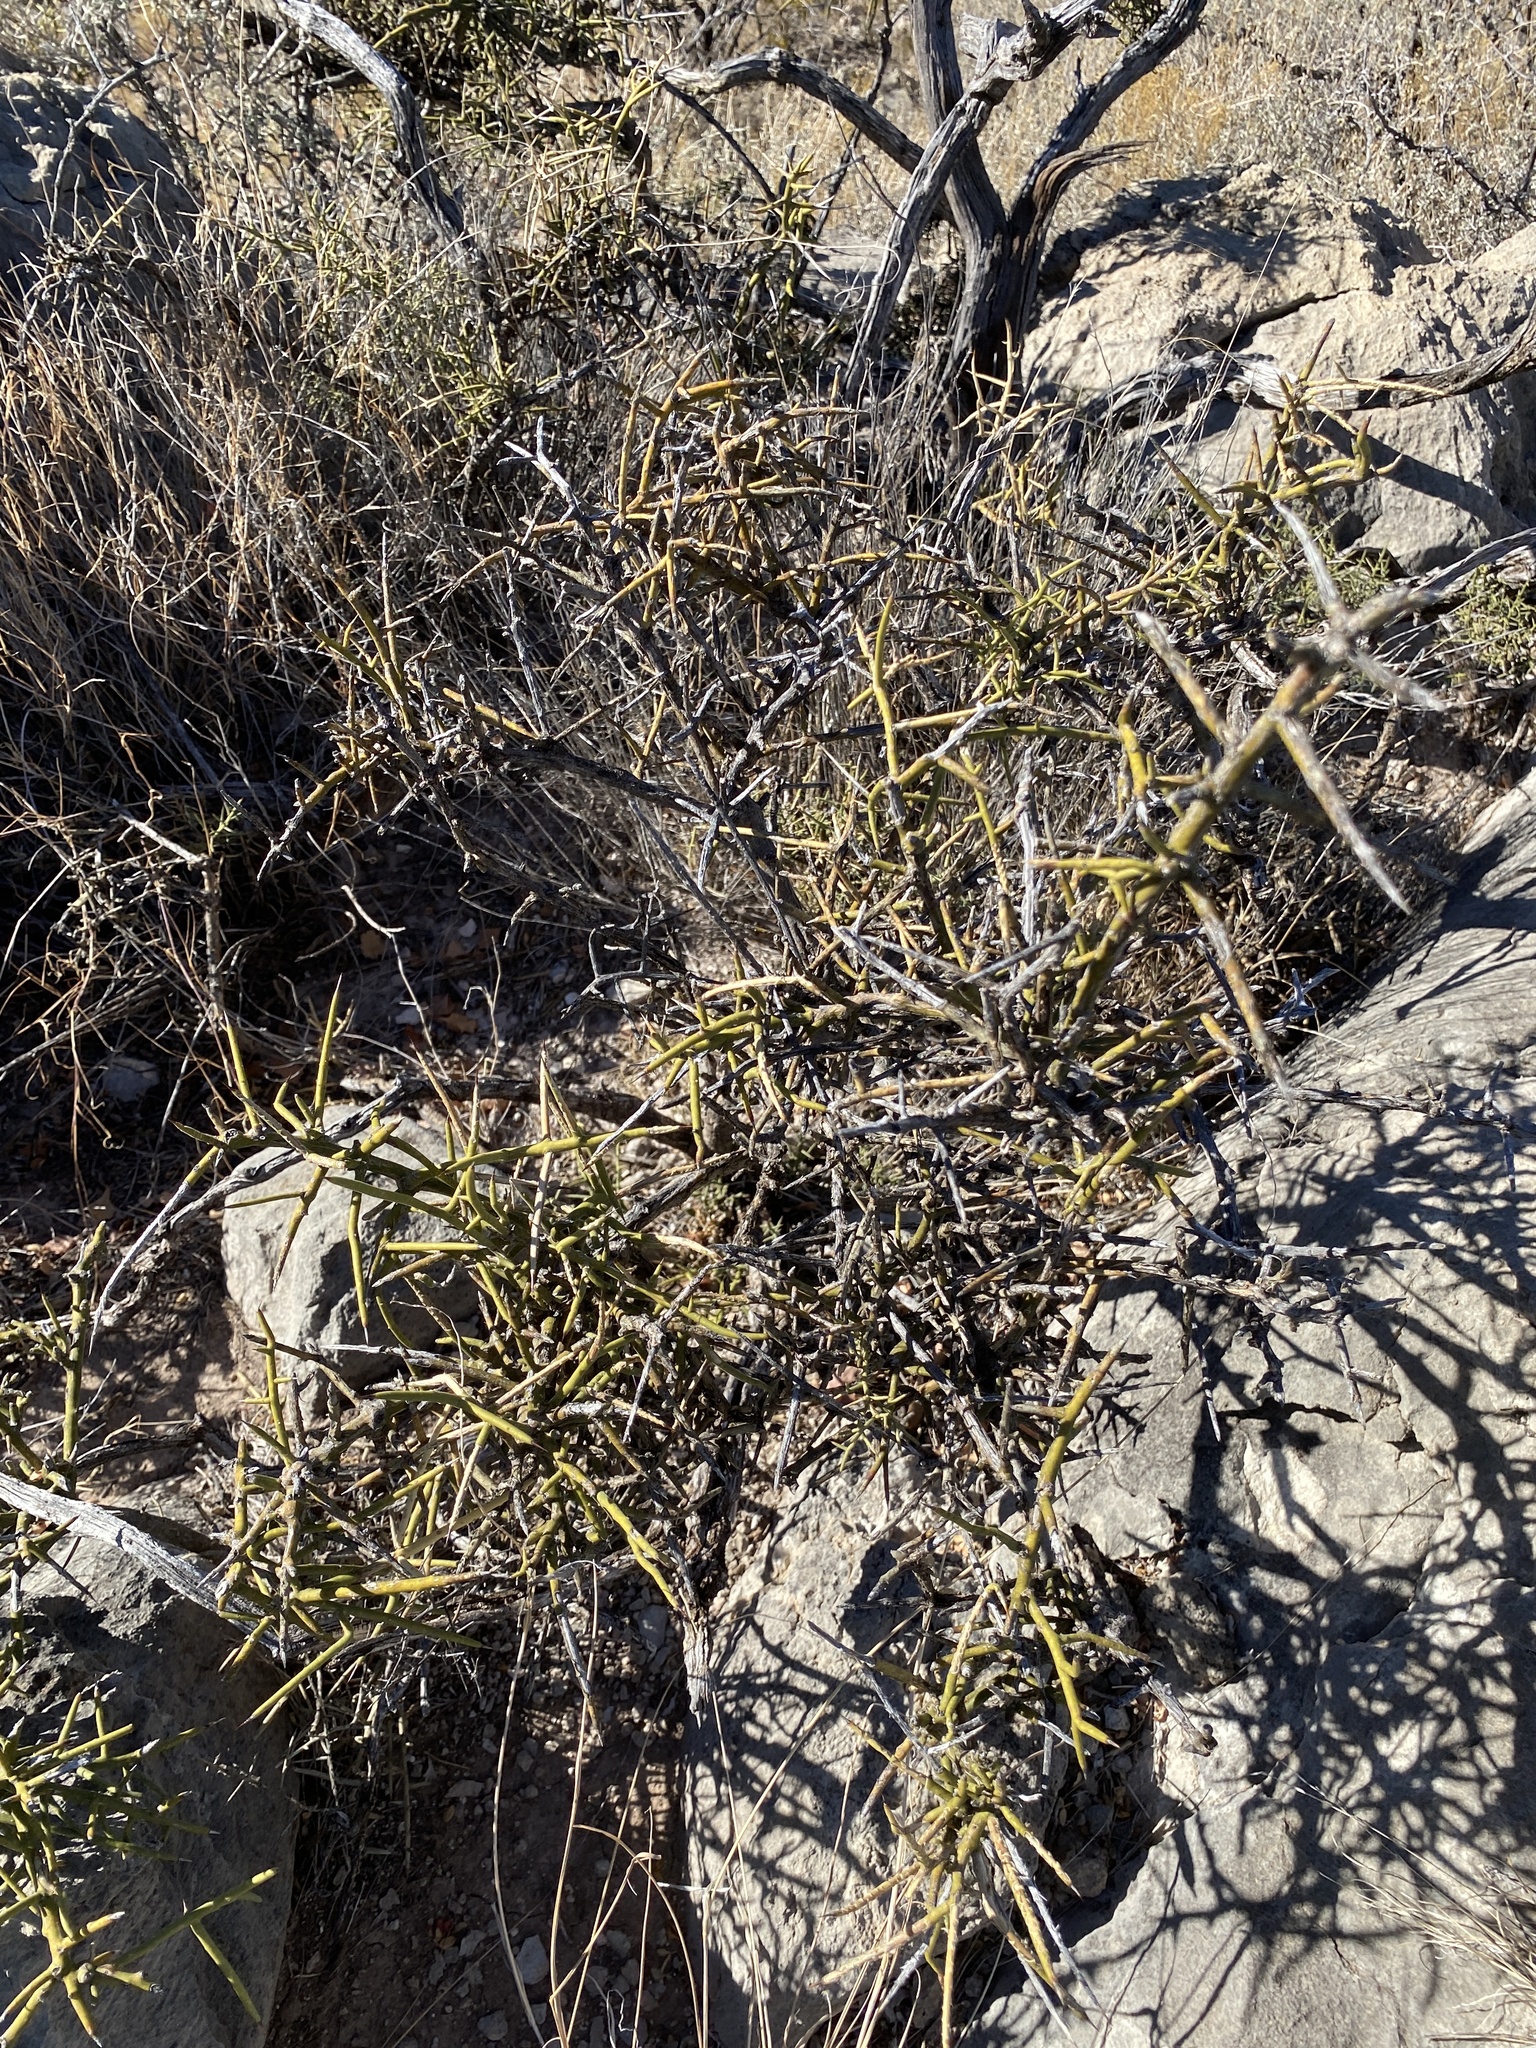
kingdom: Plantae
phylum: Tracheophyta
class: Magnoliopsida
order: Brassicales
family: Koeberliniaceae
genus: Koeberlinia
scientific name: Koeberlinia spinosa
